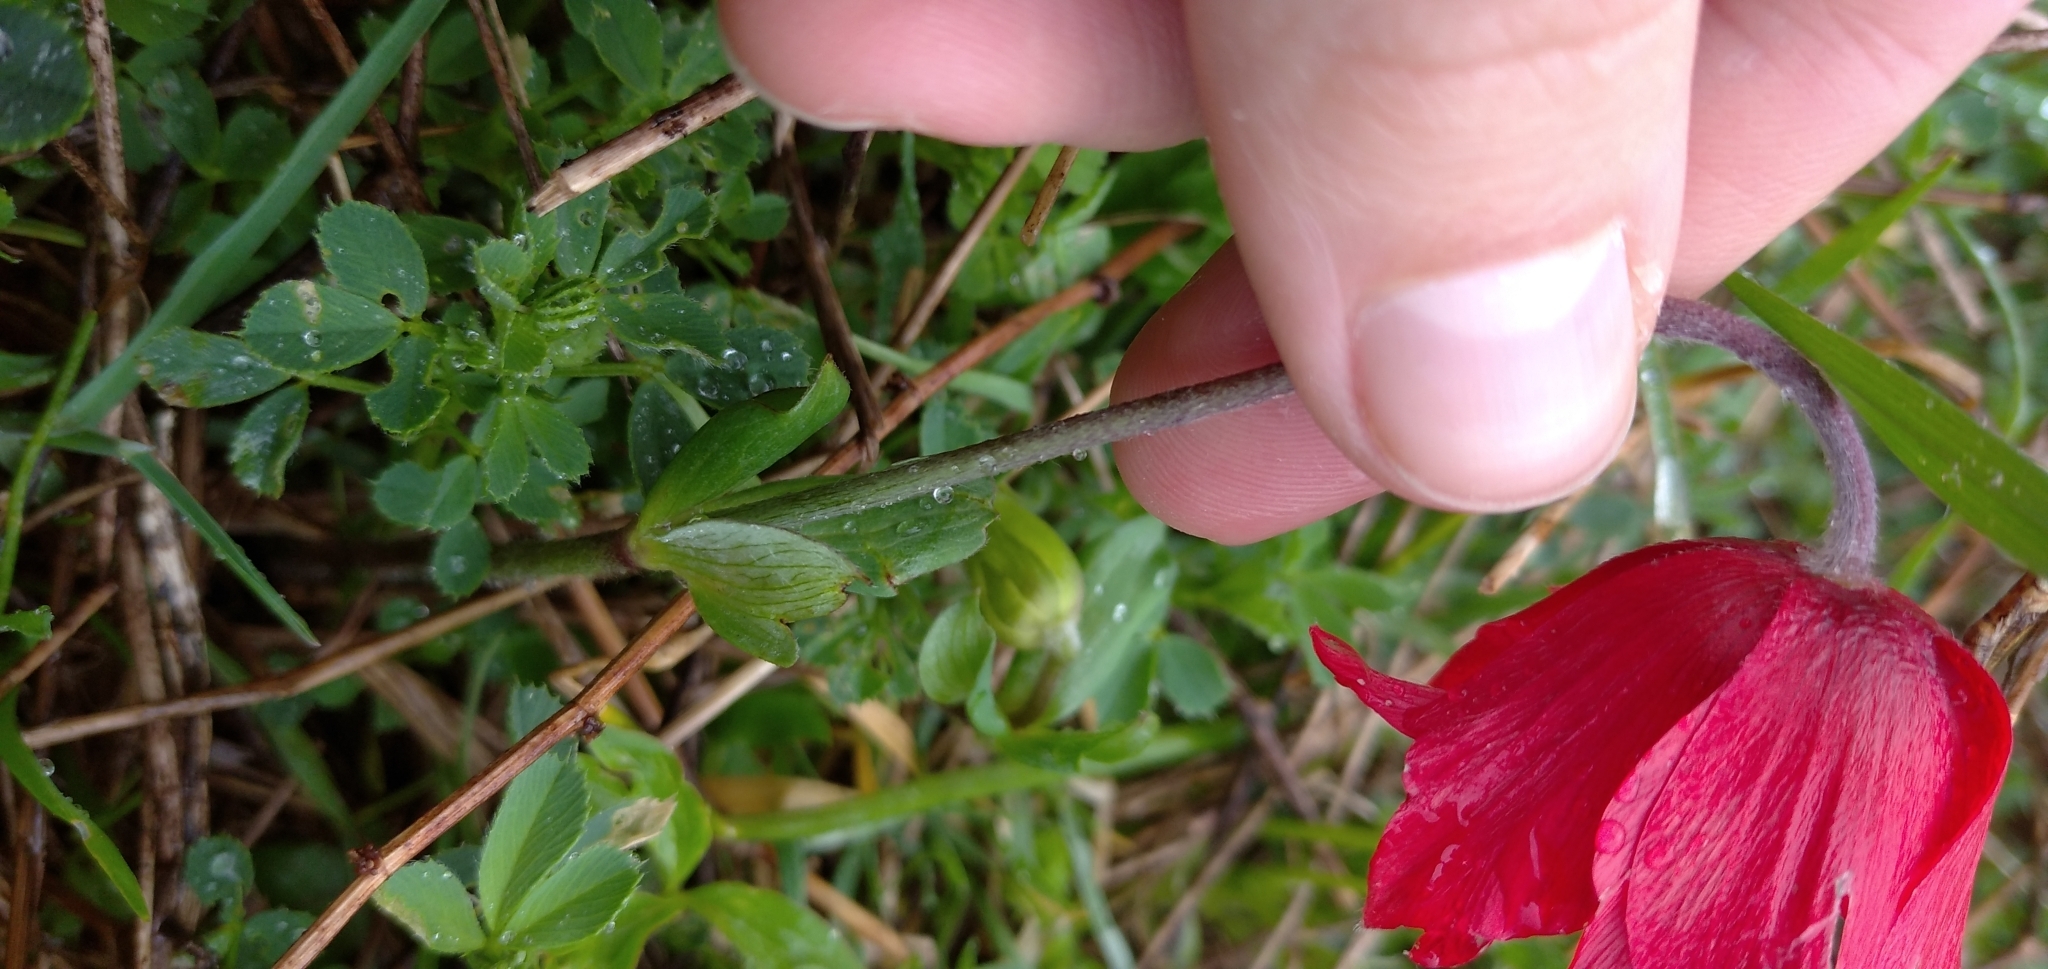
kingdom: Plantae
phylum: Tracheophyta
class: Magnoliopsida
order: Ranunculales
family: Ranunculaceae
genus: Anemone
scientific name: Anemone pavonina
